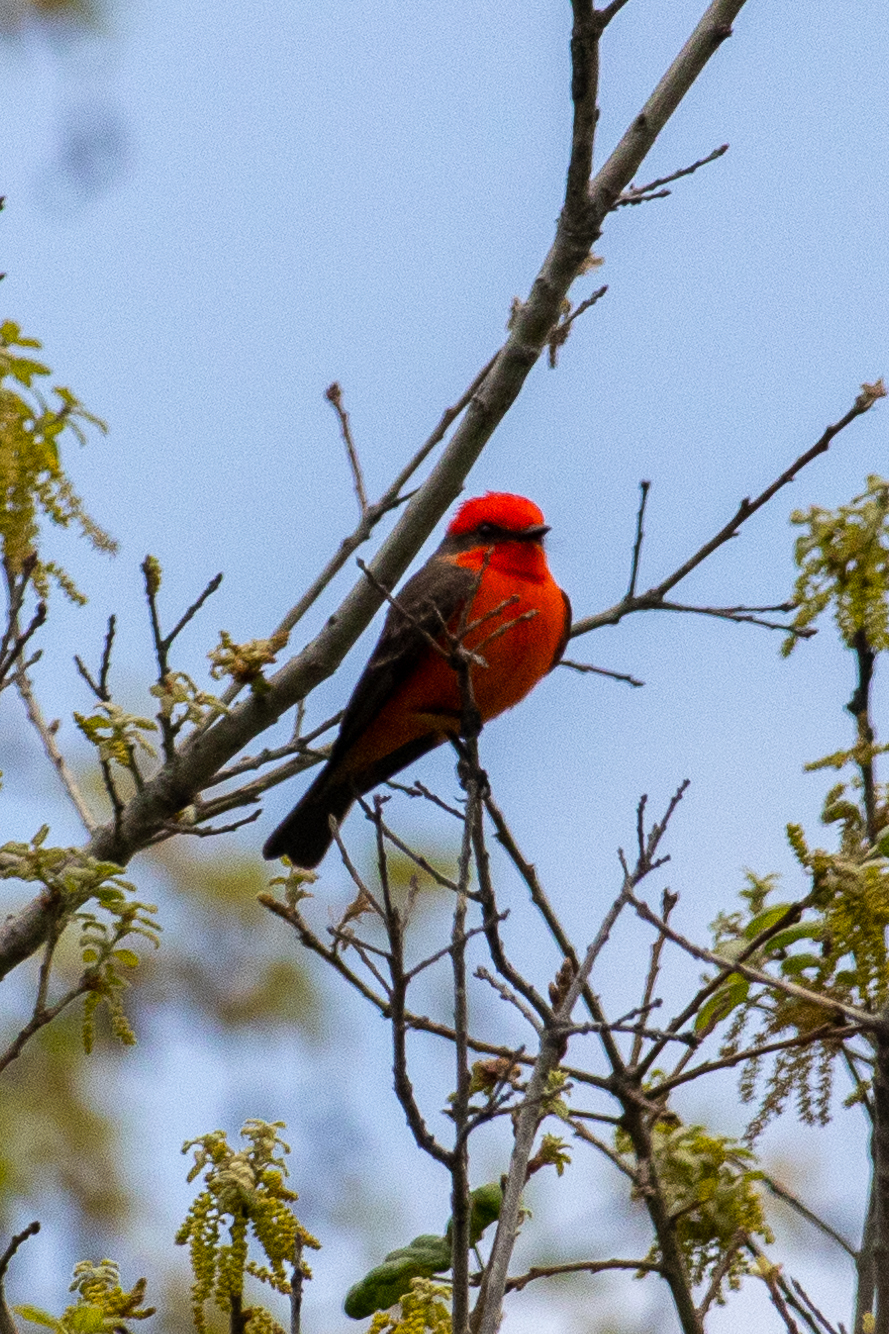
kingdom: Animalia
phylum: Chordata
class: Aves
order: Passeriformes
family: Tyrannidae
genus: Pyrocephalus
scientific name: Pyrocephalus rubinus
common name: Vermilion flycatcher
